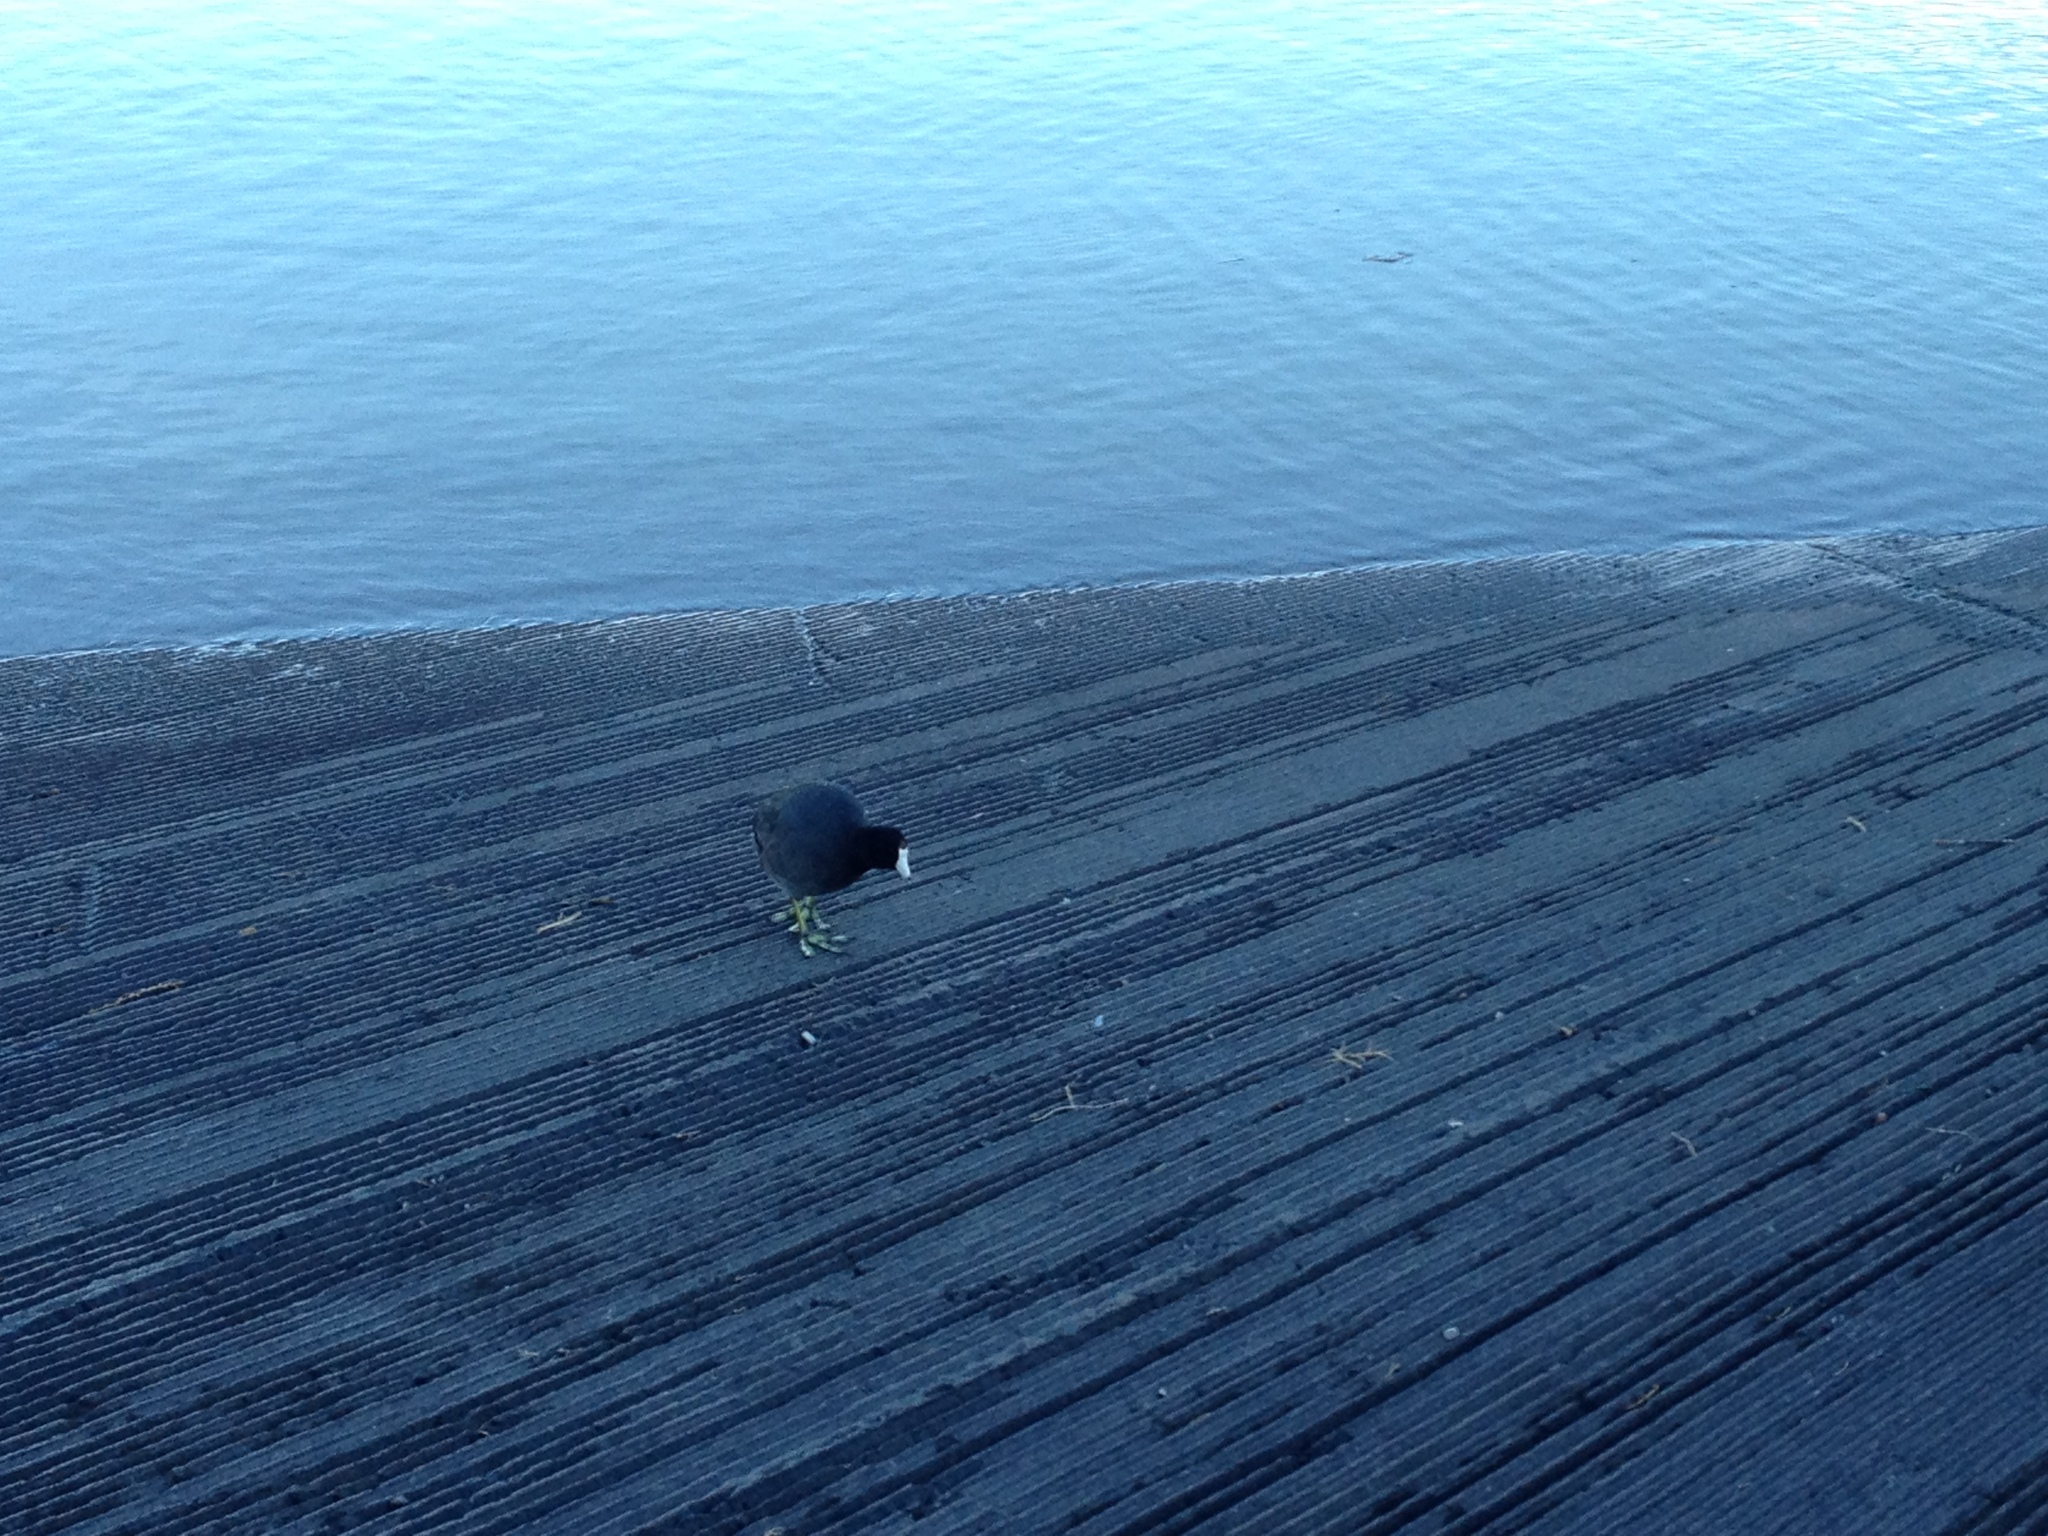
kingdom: Animalia
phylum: Chordata
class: Aves
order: Gruiformes
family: Rallidae
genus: Fulica
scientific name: Fulica americana
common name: American coot
